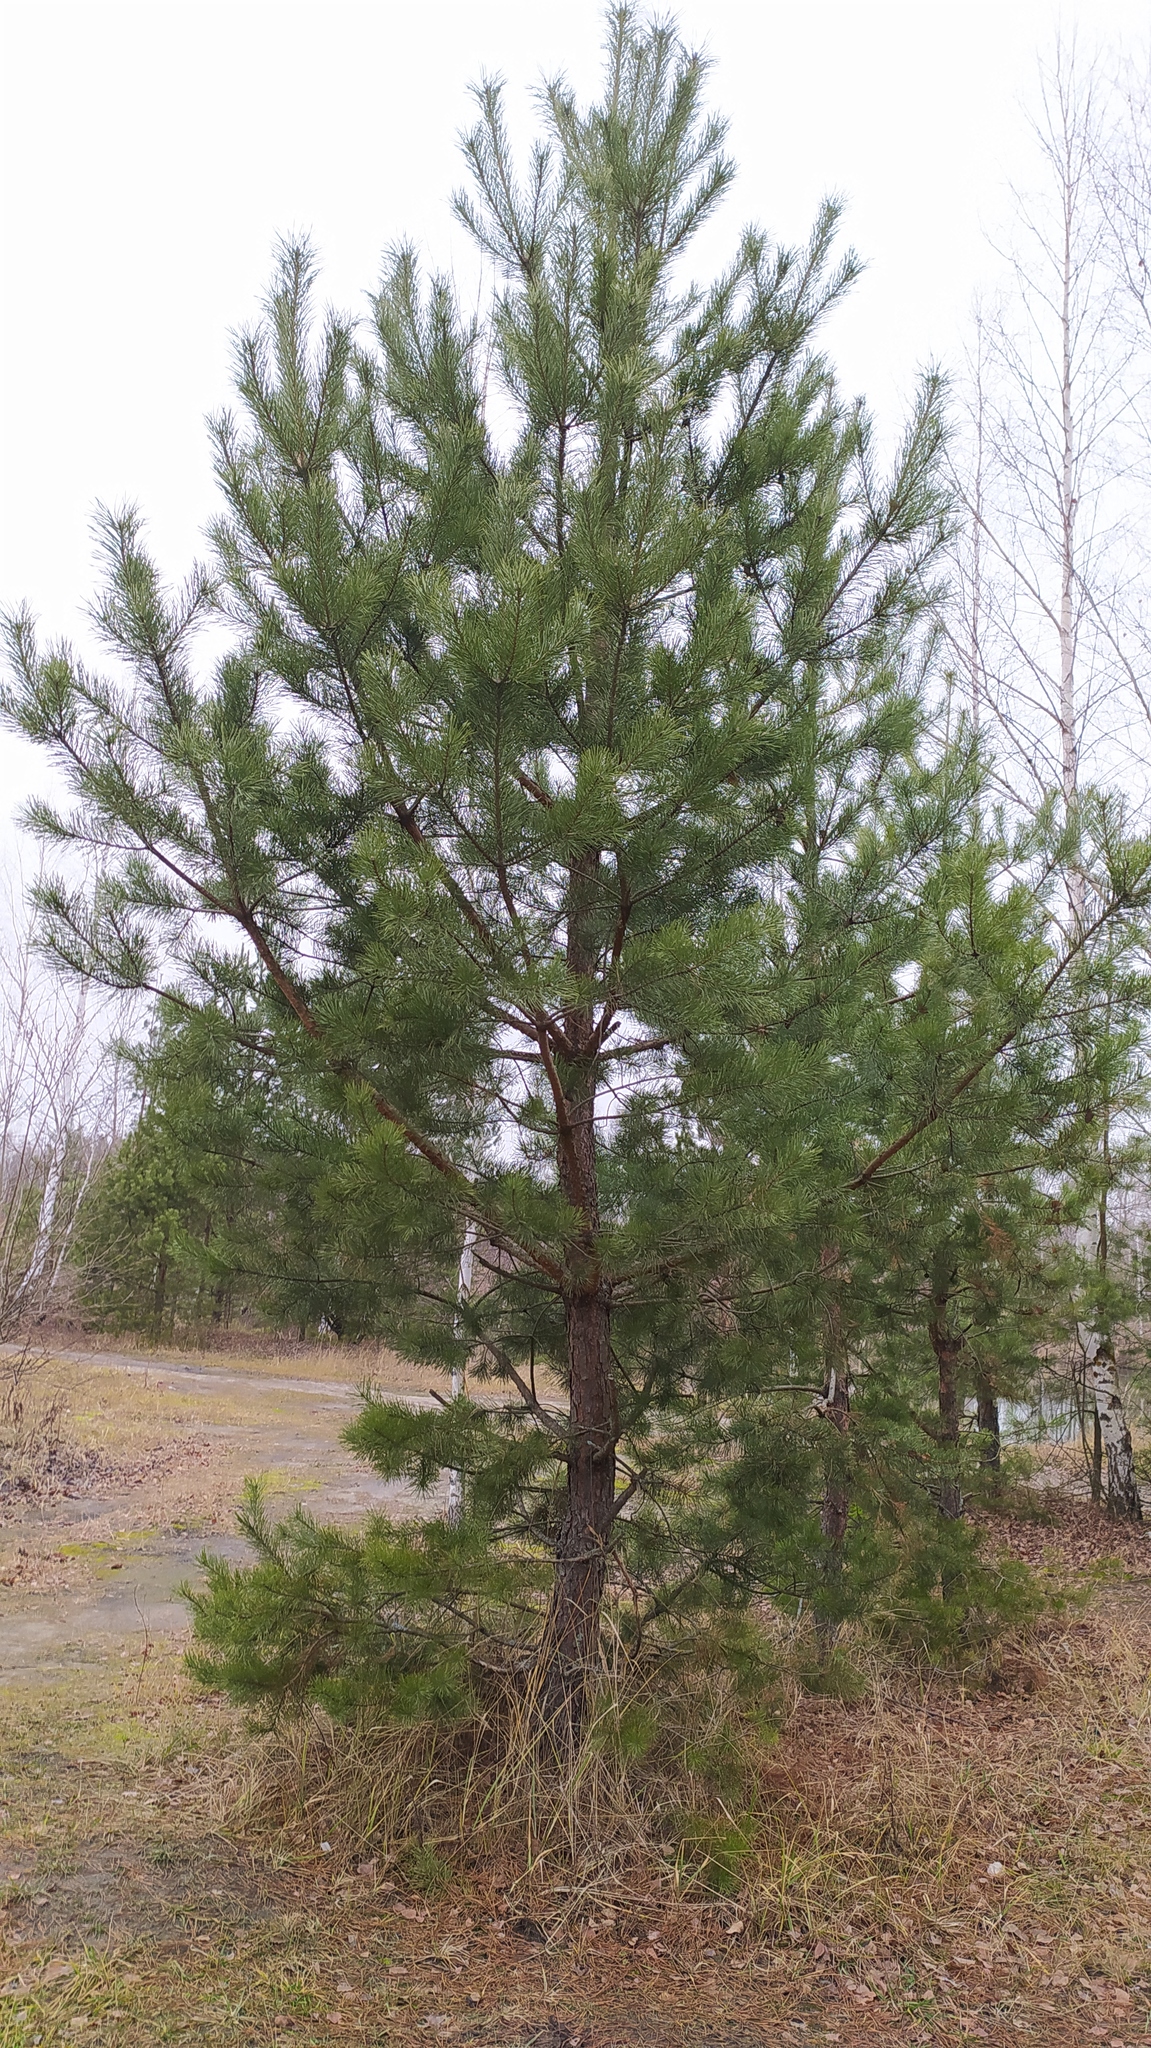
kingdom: Plantae
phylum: Tracheophyta
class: Pinopsida
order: Pinales
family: Pinaceae
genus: Pinus
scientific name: Pinus sylvestris
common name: Scots pine
